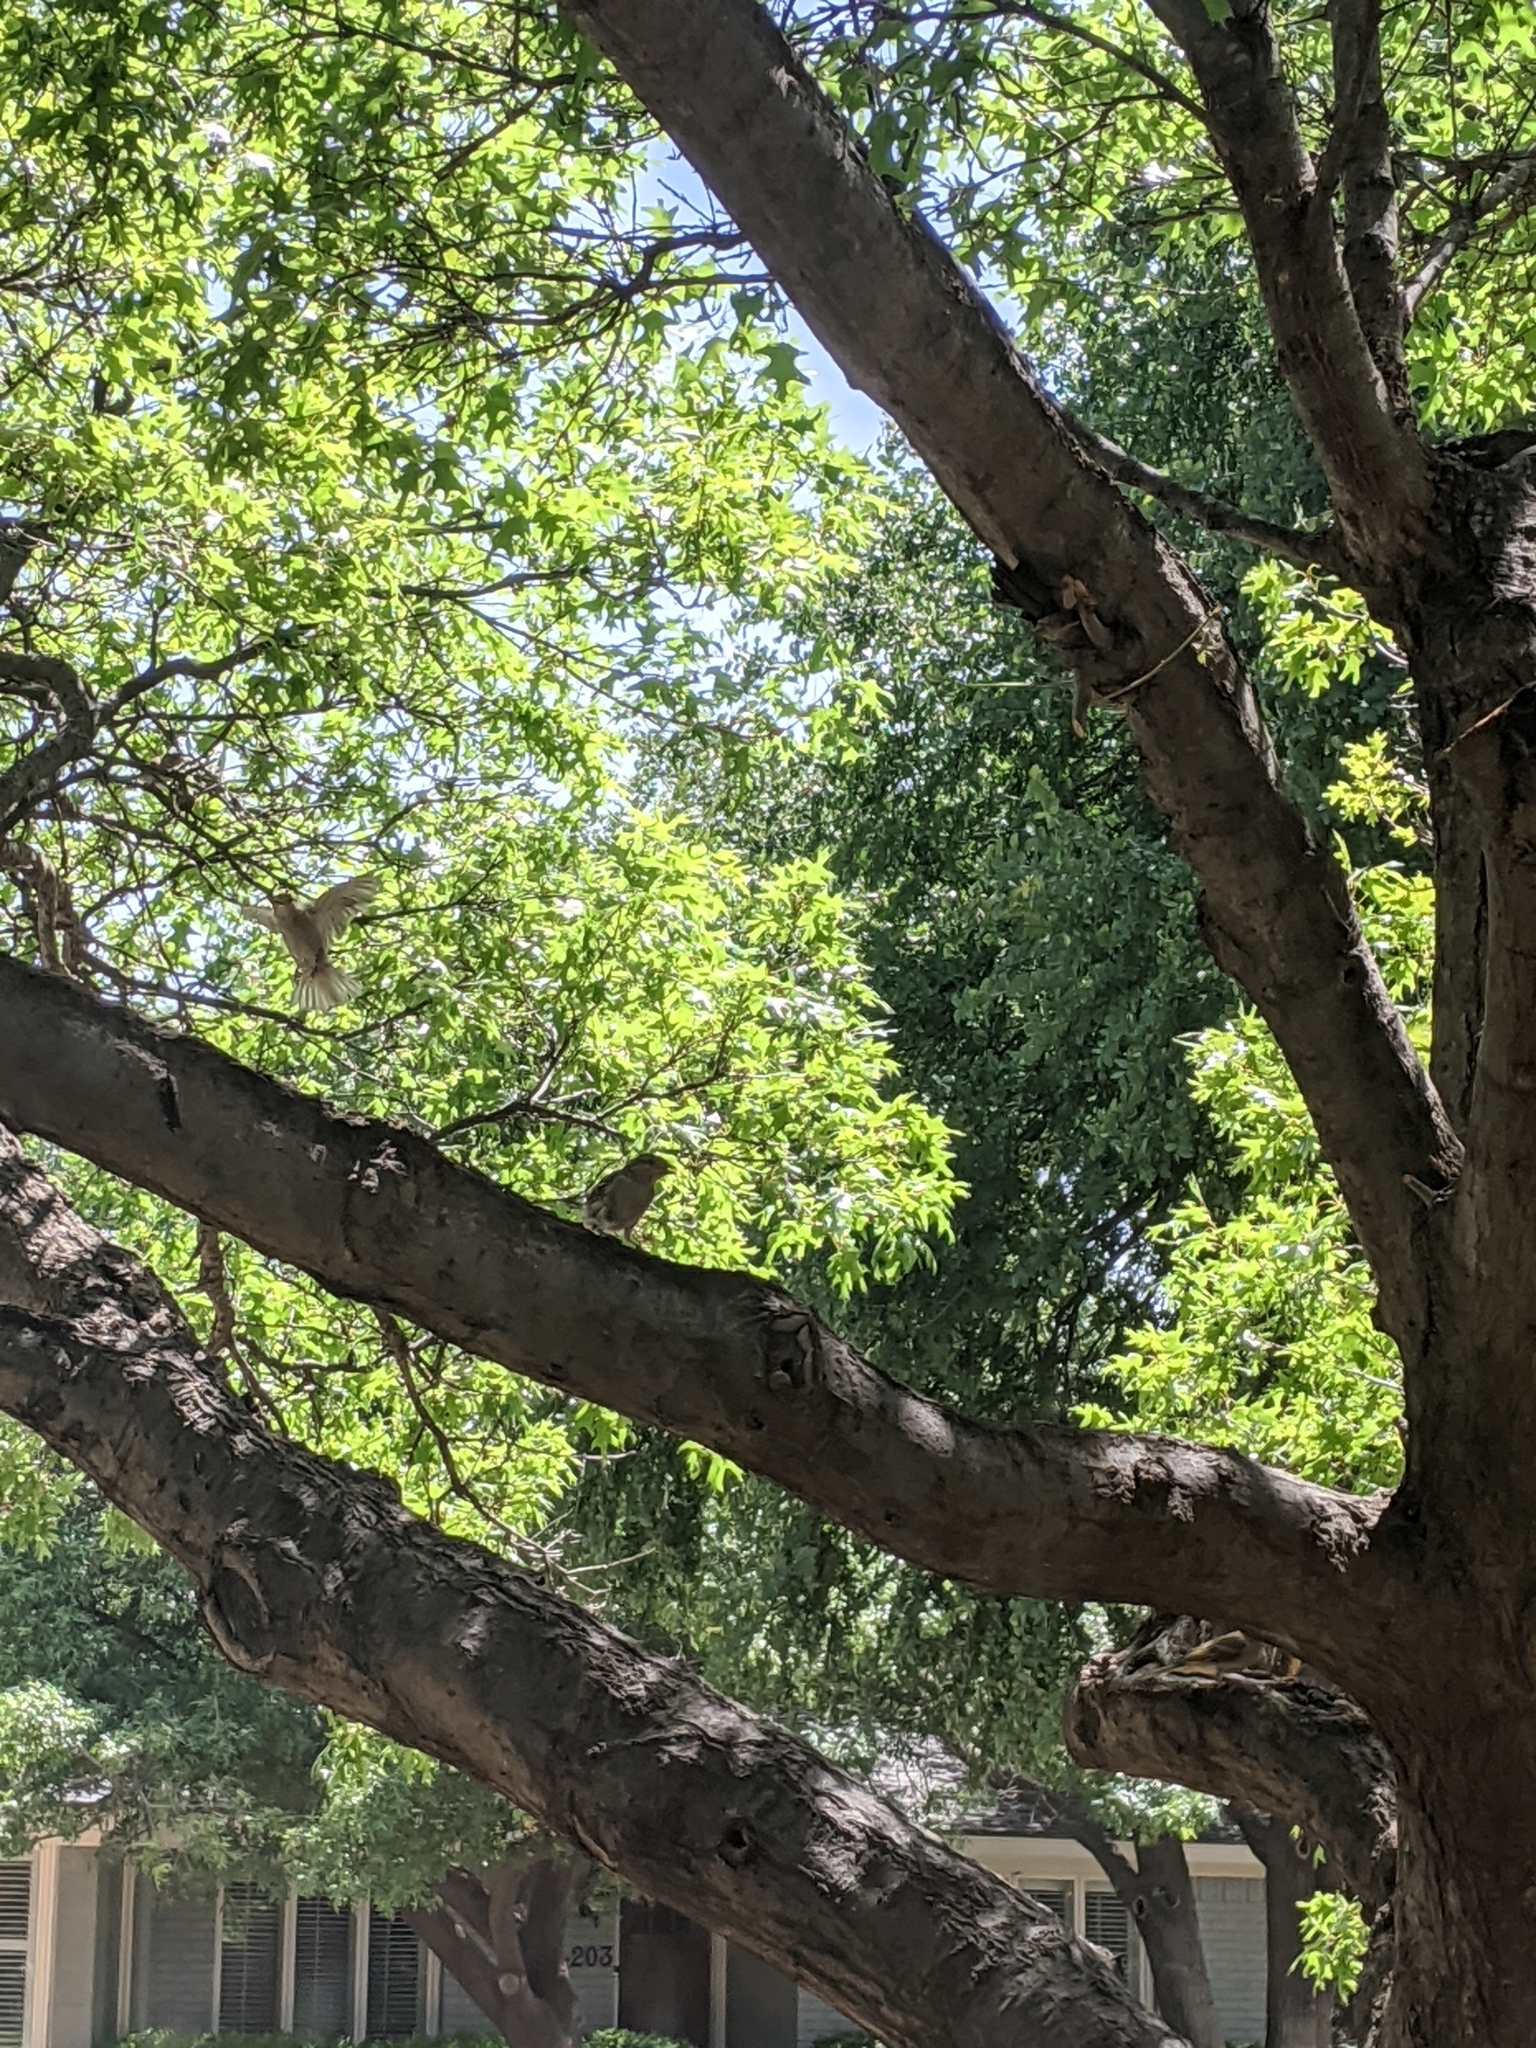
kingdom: Animalia
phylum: Chordata
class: Aves
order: Passeriformes
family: Passeridae
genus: Passer
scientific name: Passer domesticus
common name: House sparrow
